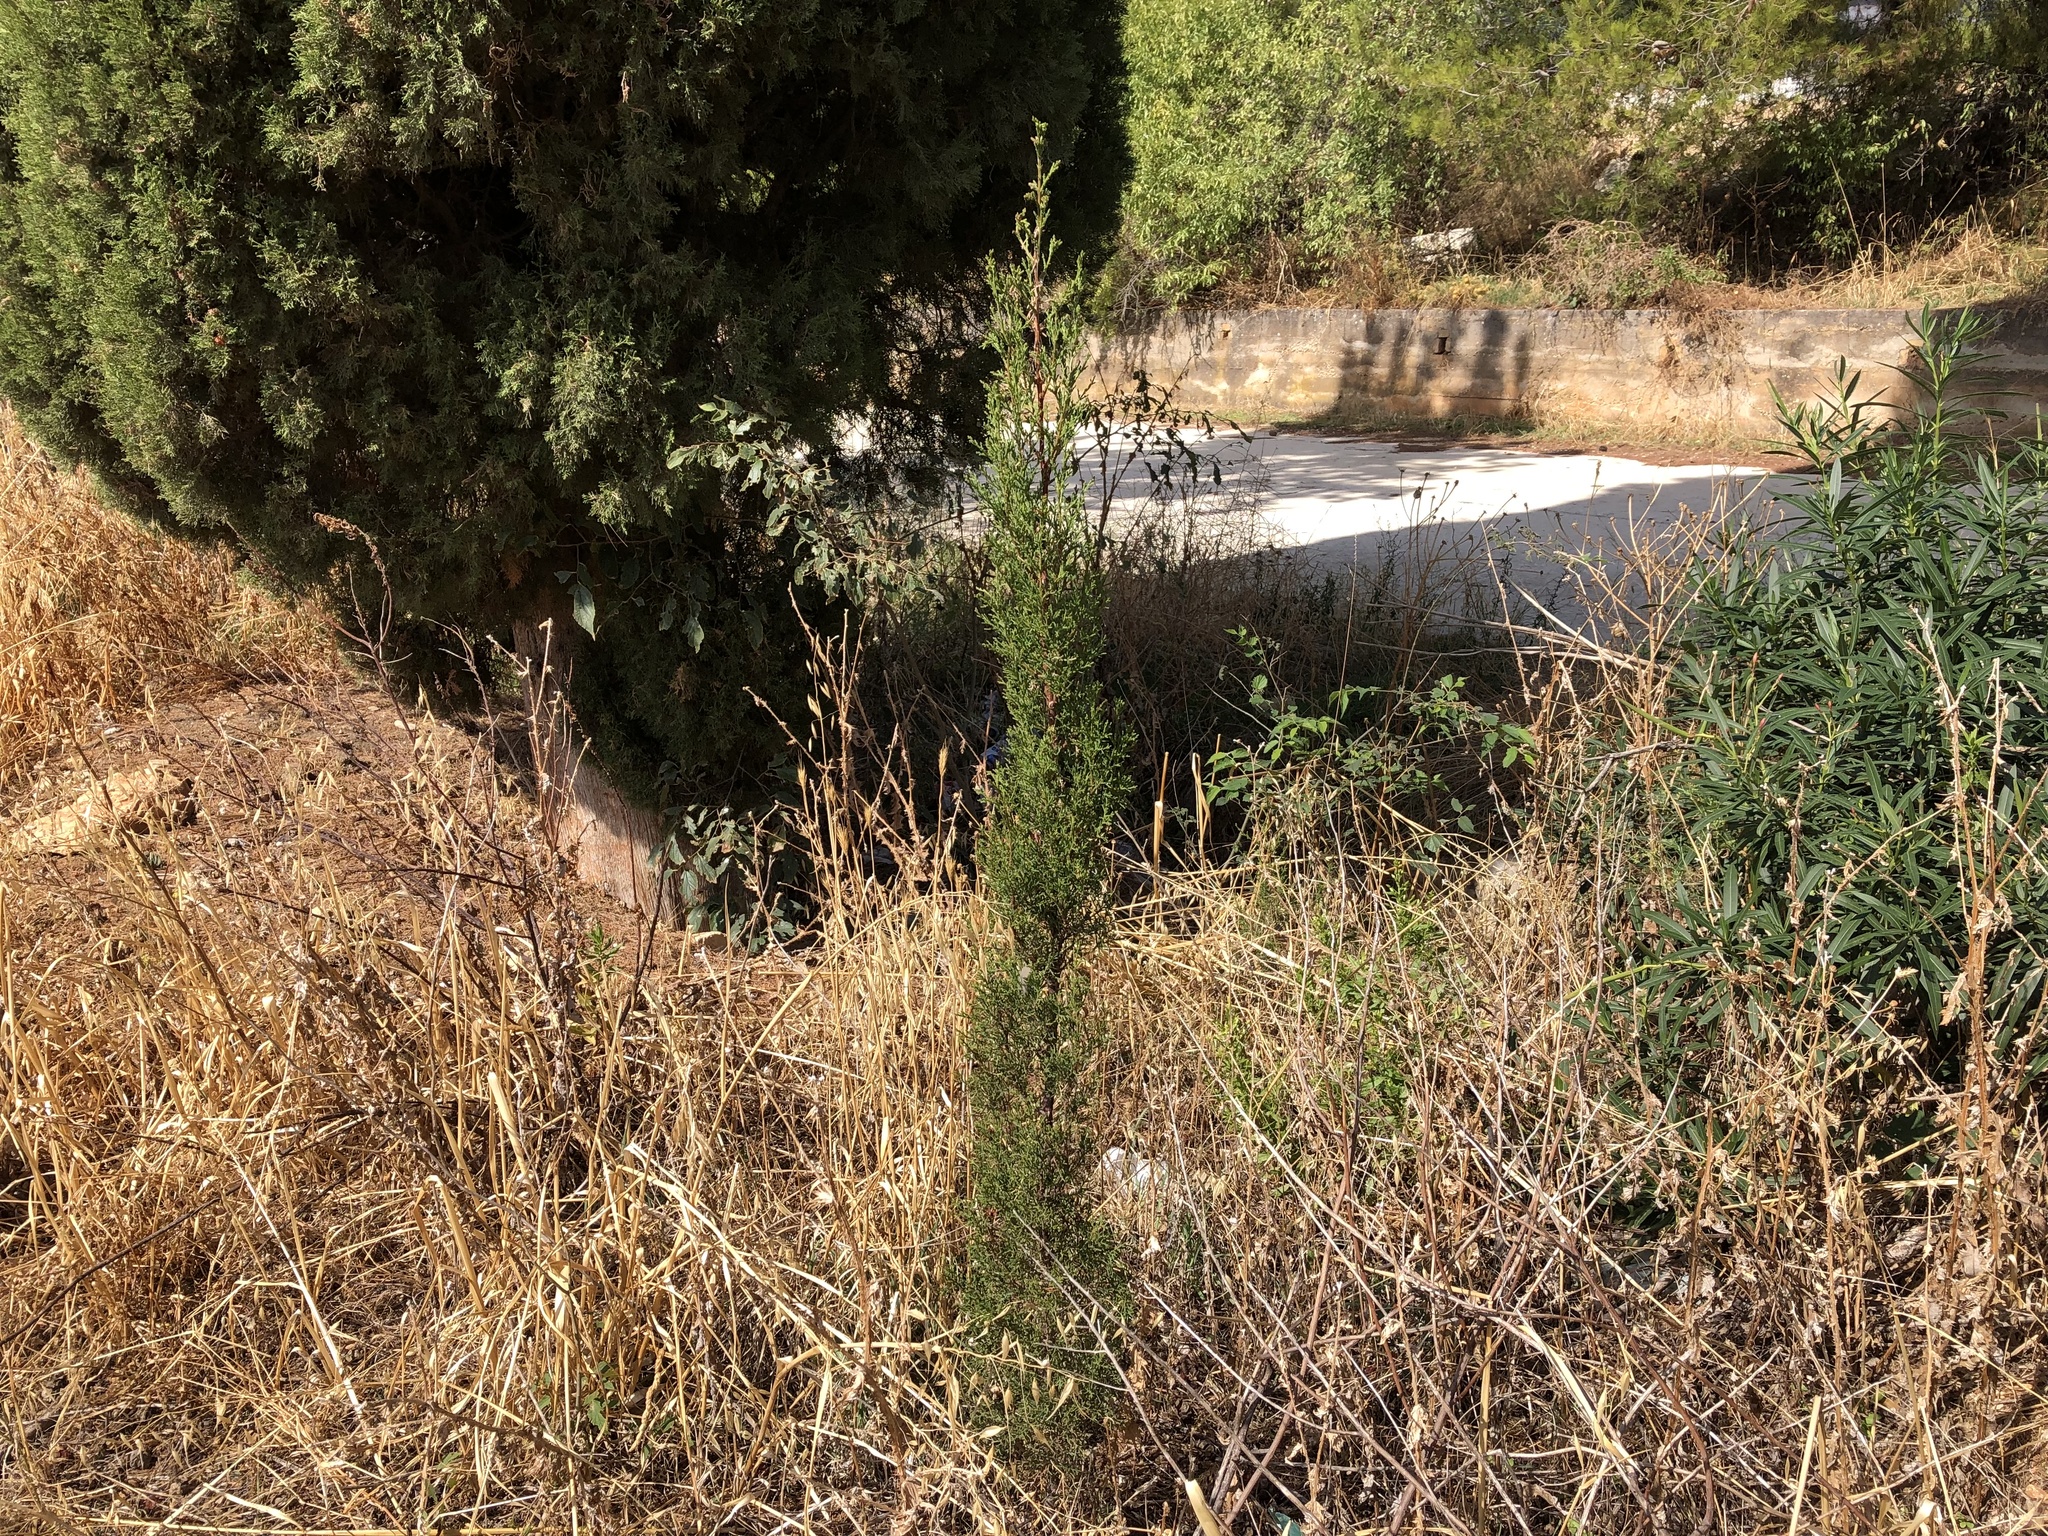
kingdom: Plantae
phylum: Tracheophyta
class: Pinopsida
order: Pinales
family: Cupressaceae
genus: Cupressus
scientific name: Cupressus sempervirens
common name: Italian cypress
